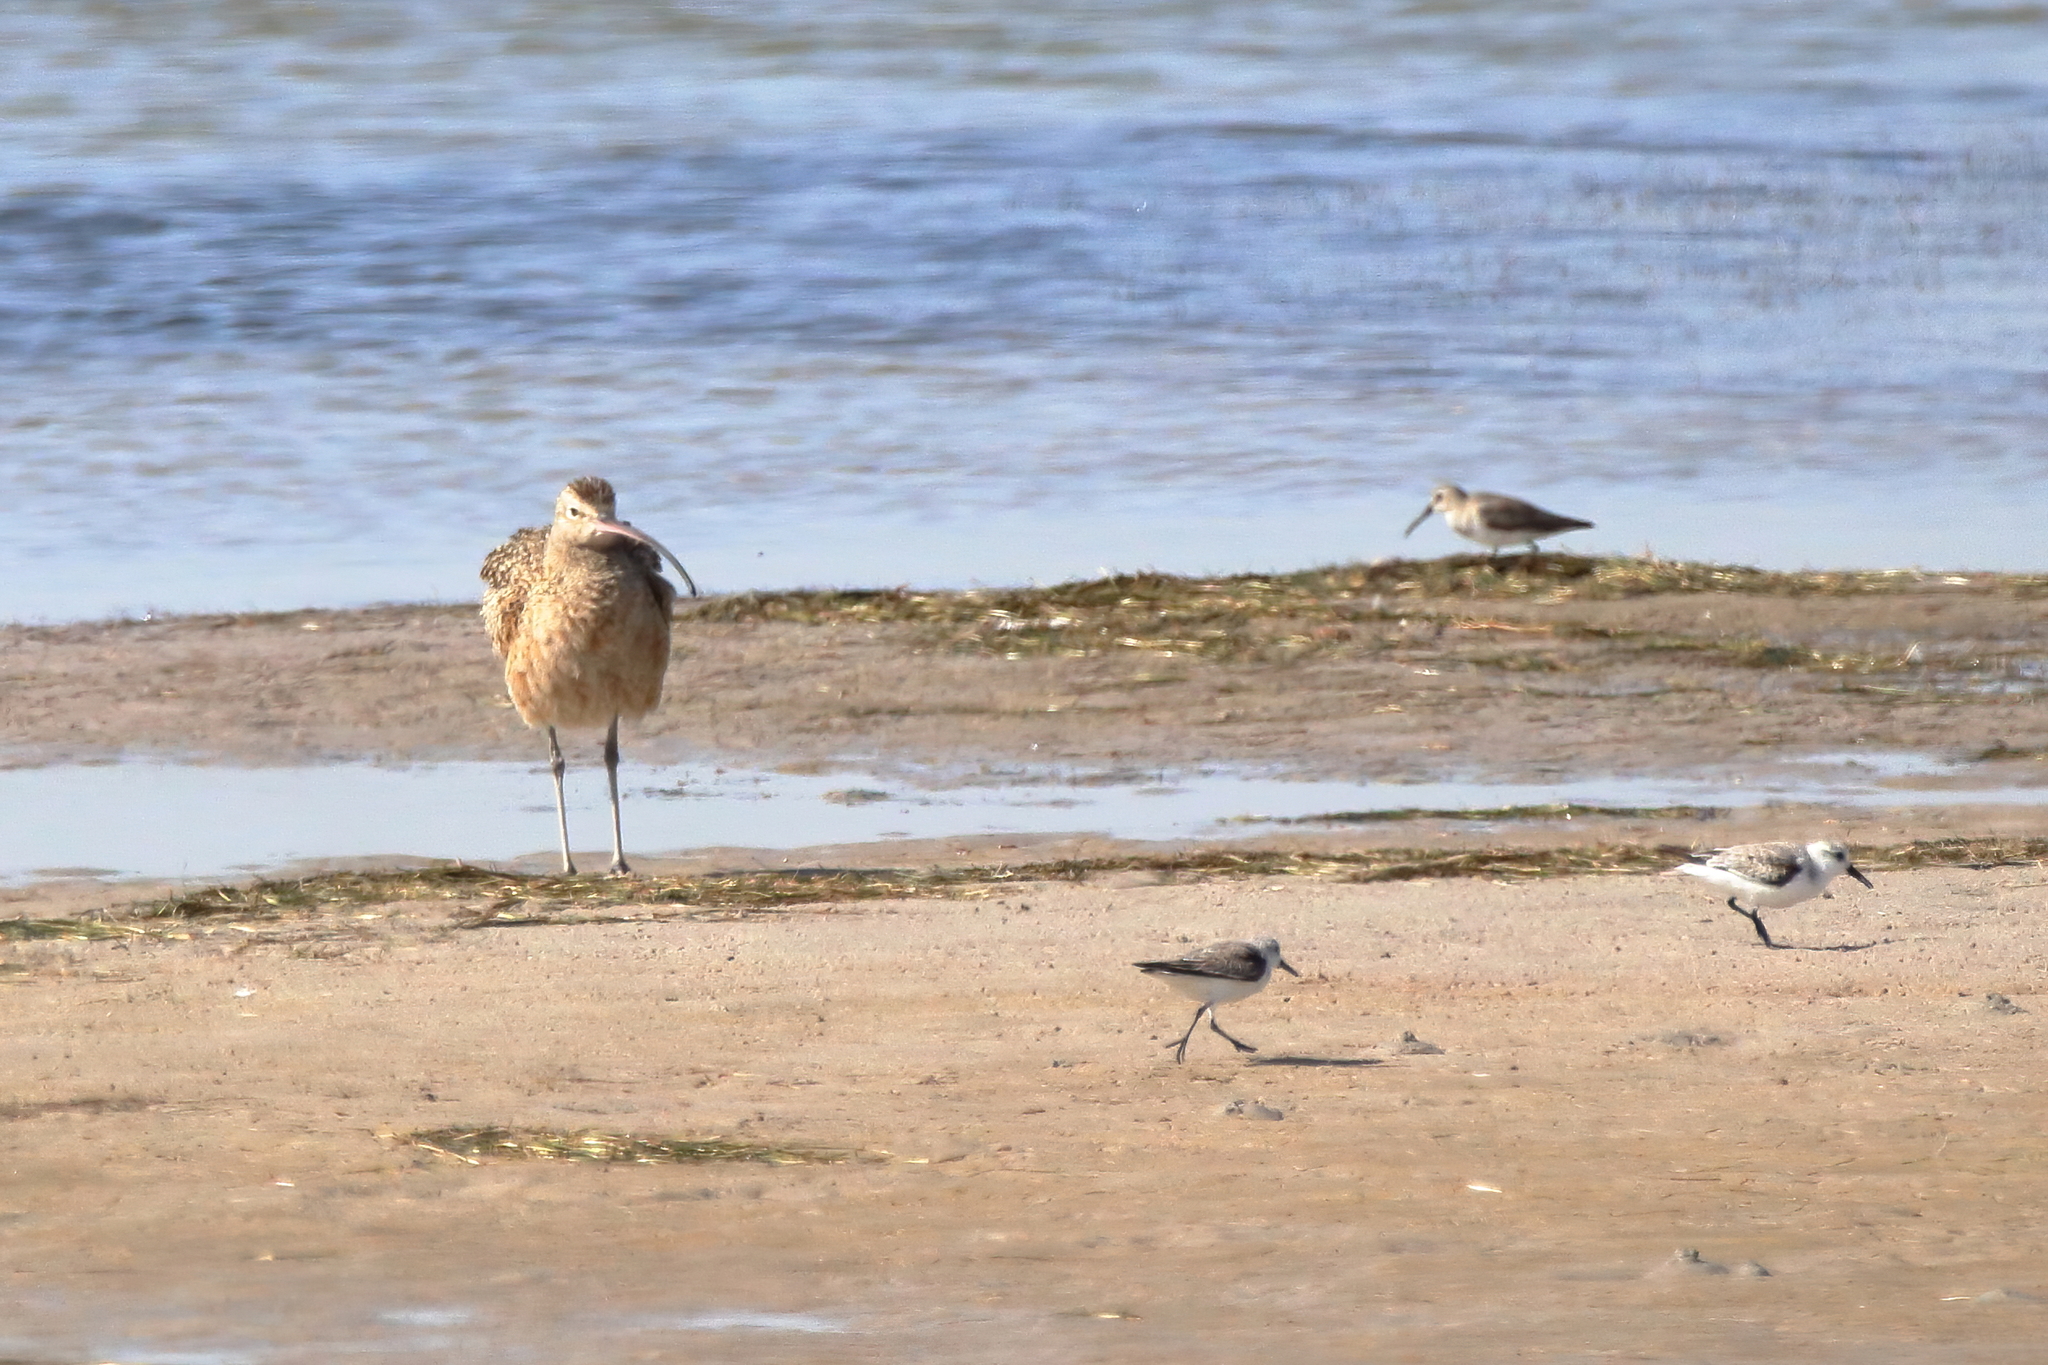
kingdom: Animalia
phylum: Chordata
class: Aves
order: Charadriiformes
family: Scolopacidae
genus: Numenius
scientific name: Numenius americanus
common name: Long-billed curlew
